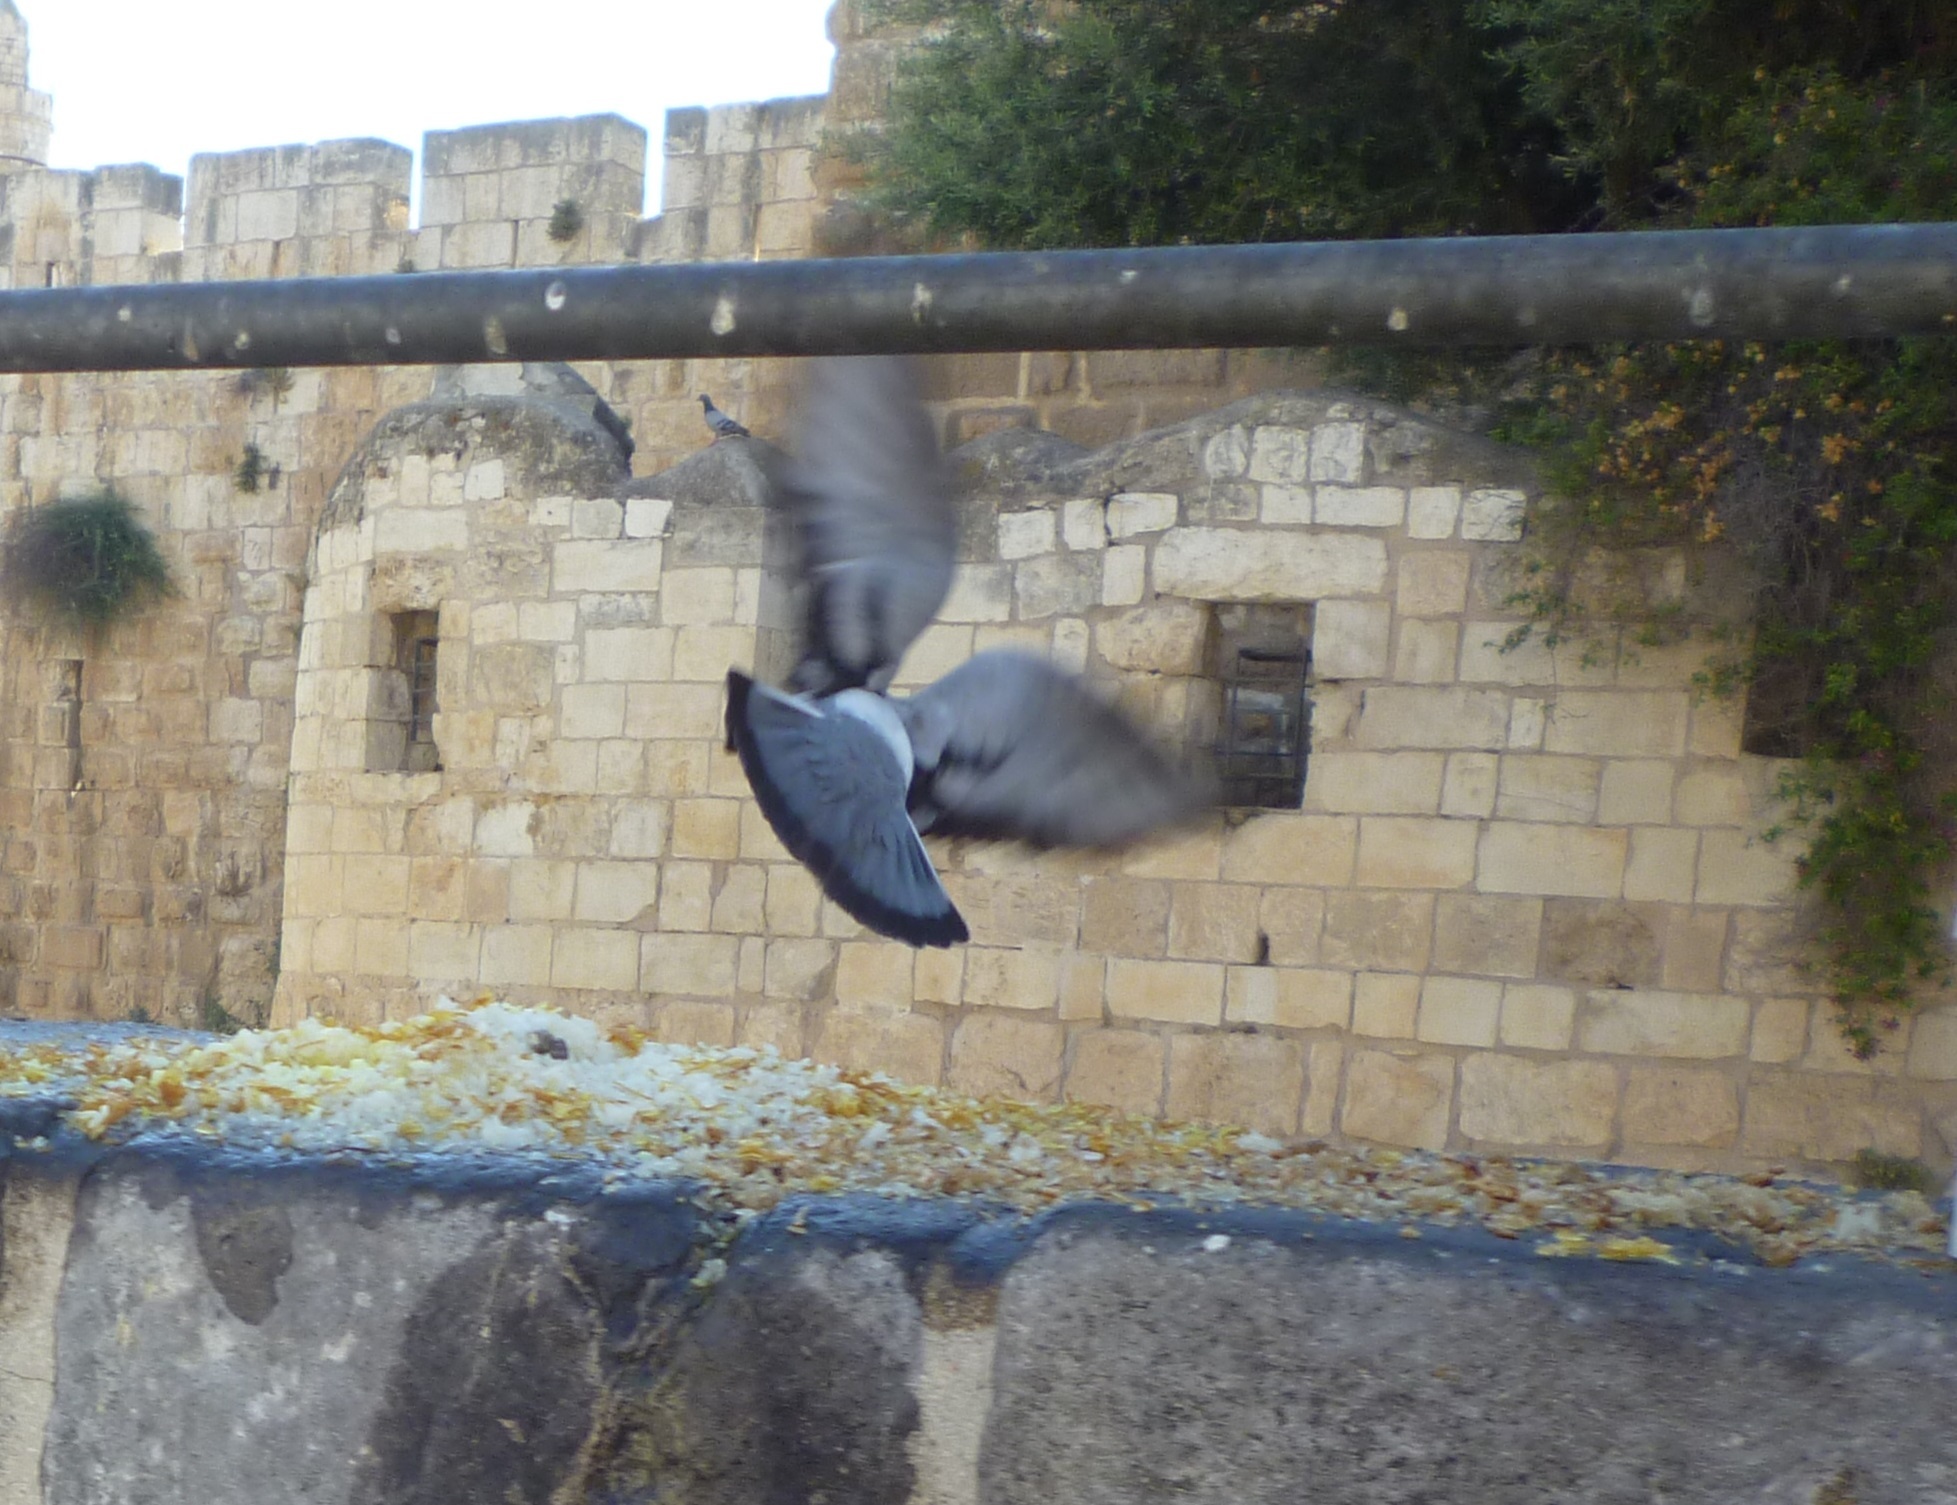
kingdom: Animalia
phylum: Chordata
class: Aves
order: Columbiformes
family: Columbidae
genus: Columba
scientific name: Columba livia
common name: Rock pigeon
